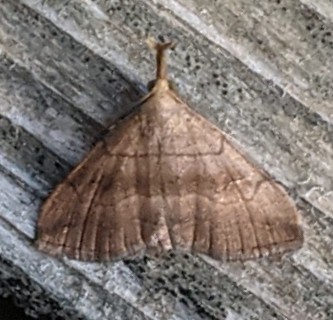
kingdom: Animalia
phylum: Arthropoda
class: Insecta
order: Lepidoptera
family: Erebidae
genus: Phalaenostola
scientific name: Phalaenostola metonalis
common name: Pale phalaenostola moth
